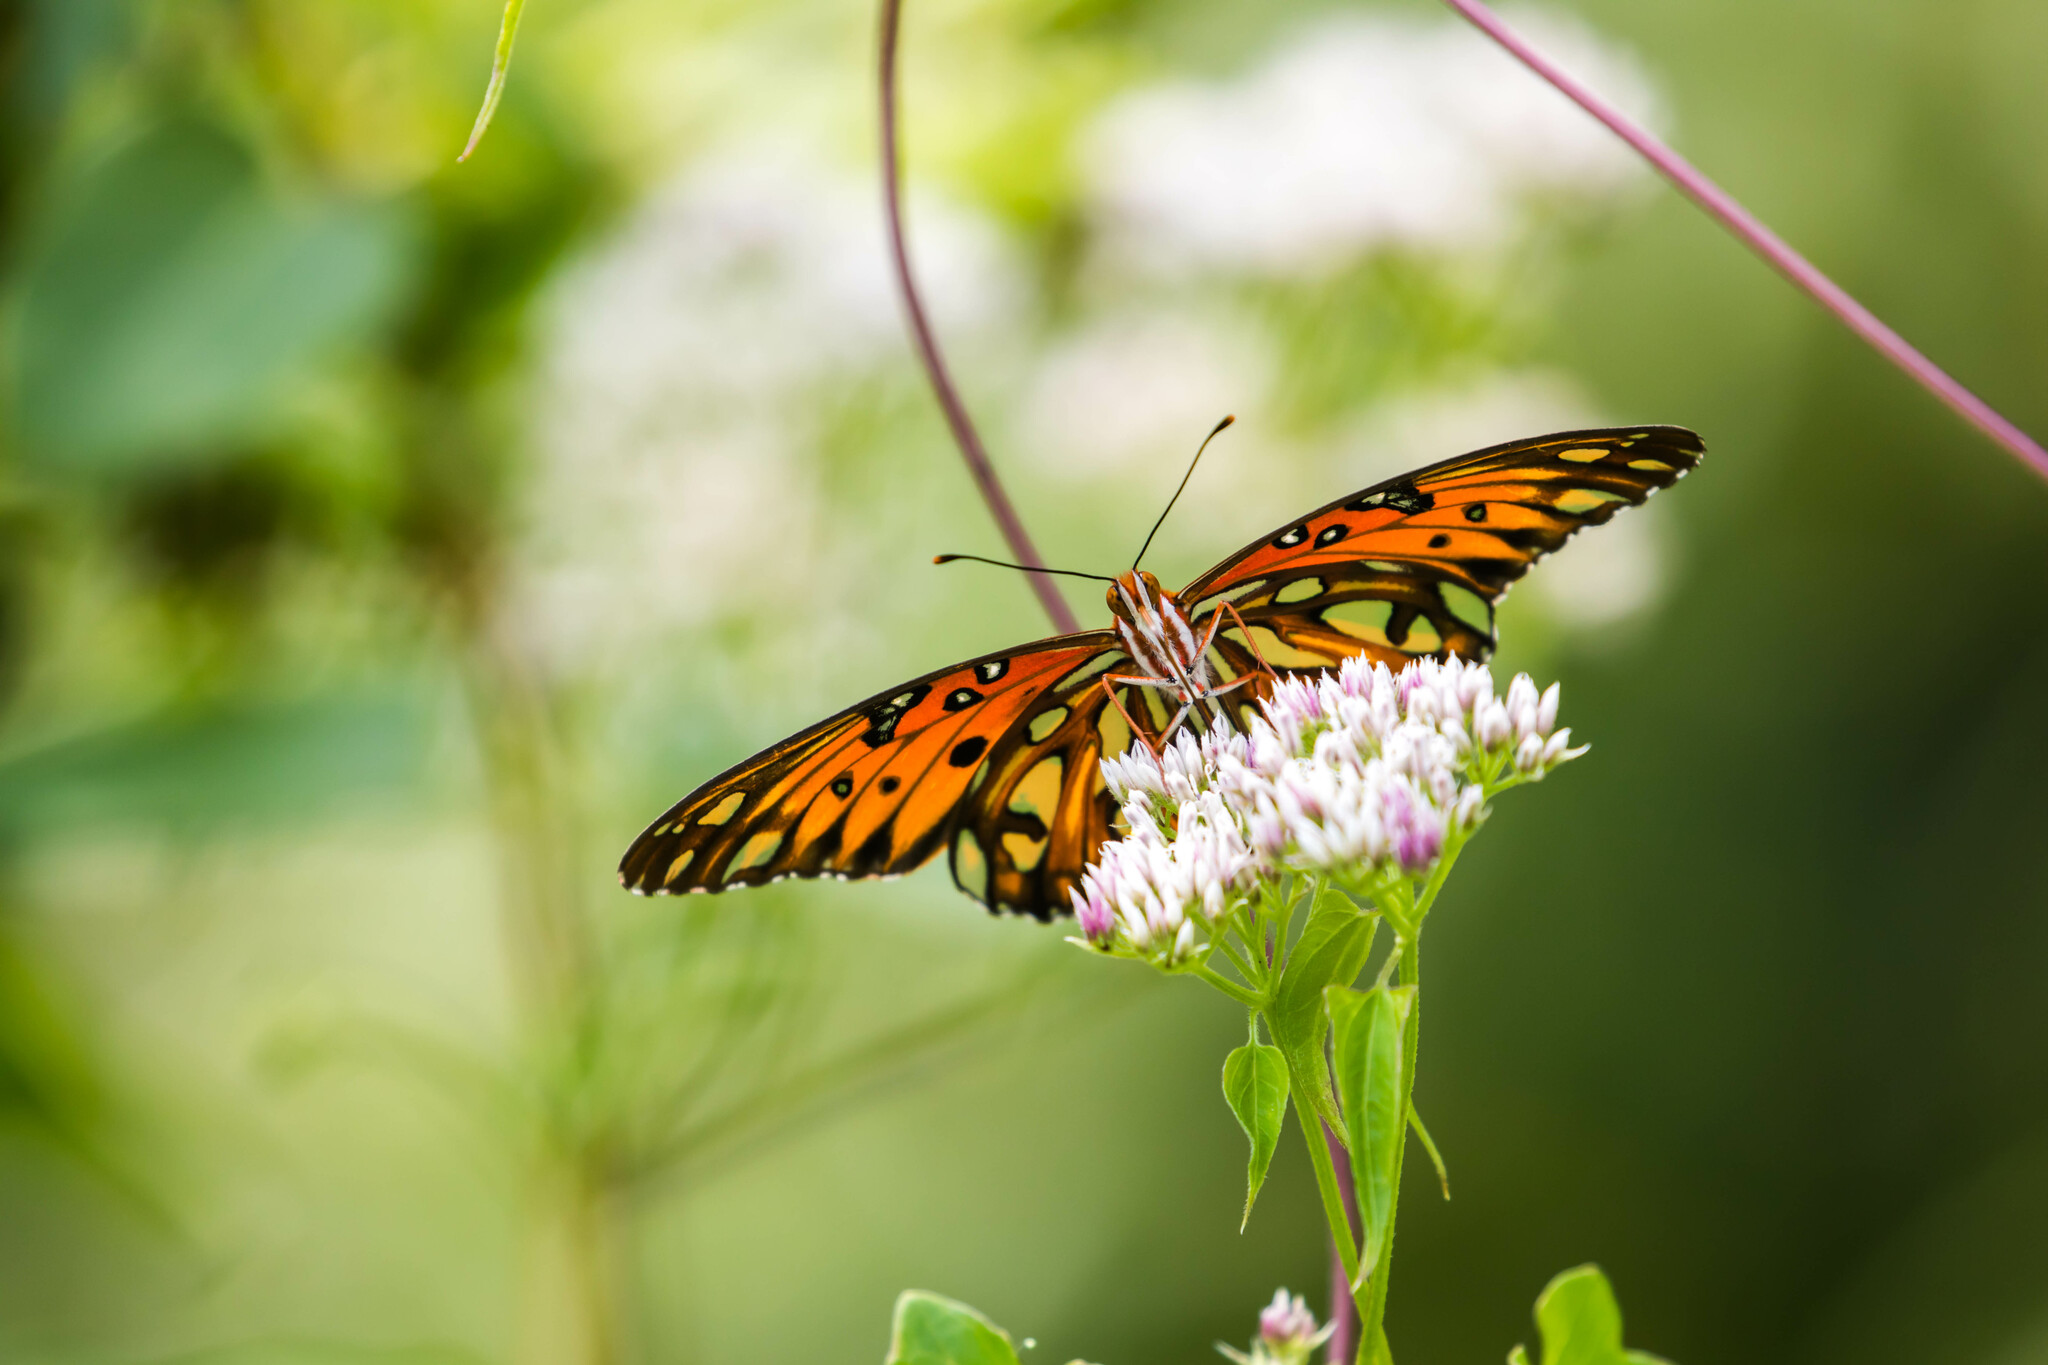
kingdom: Animalia
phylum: Arthropoda
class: Insecta
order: Lepidoptera
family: Nymphalidae
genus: Dione
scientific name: Dione vanillae
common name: Gulf fritillary
